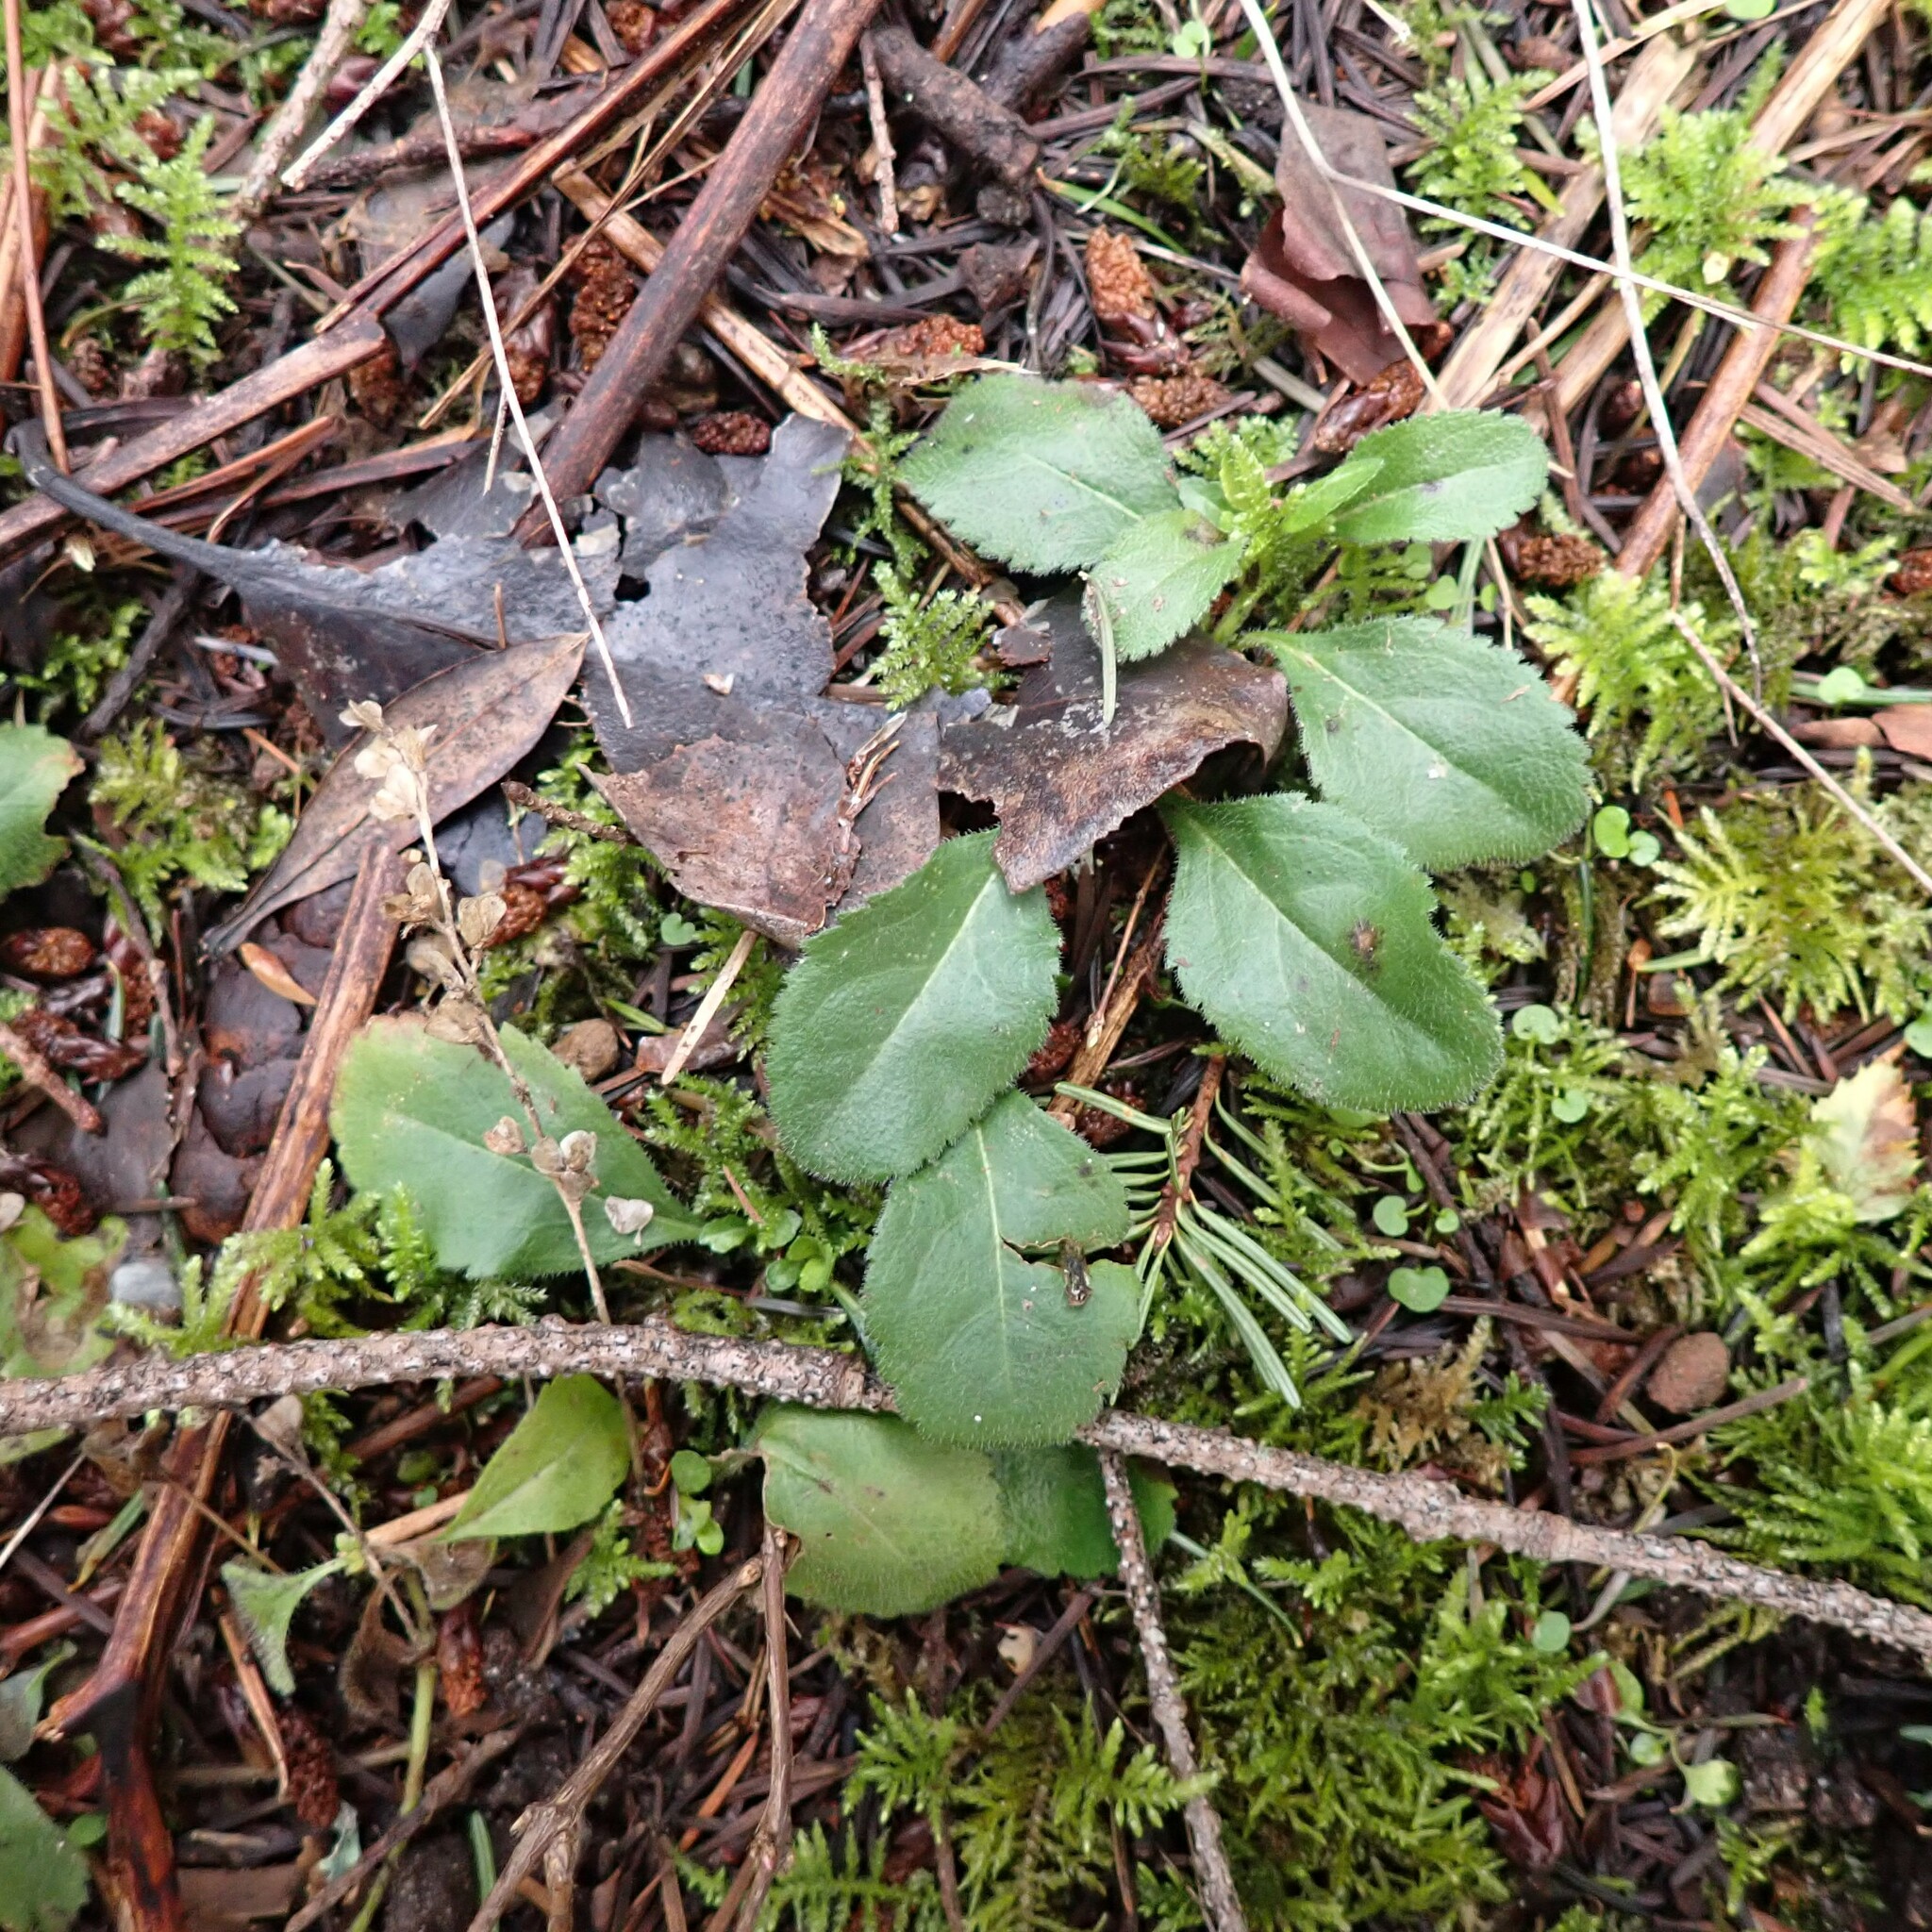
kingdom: Plantae
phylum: Tracheophyta
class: Magnoliopsida
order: Lamiales
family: Plantaginaceae
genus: Veronica
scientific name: Veronica officinalis
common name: Common speedwell
